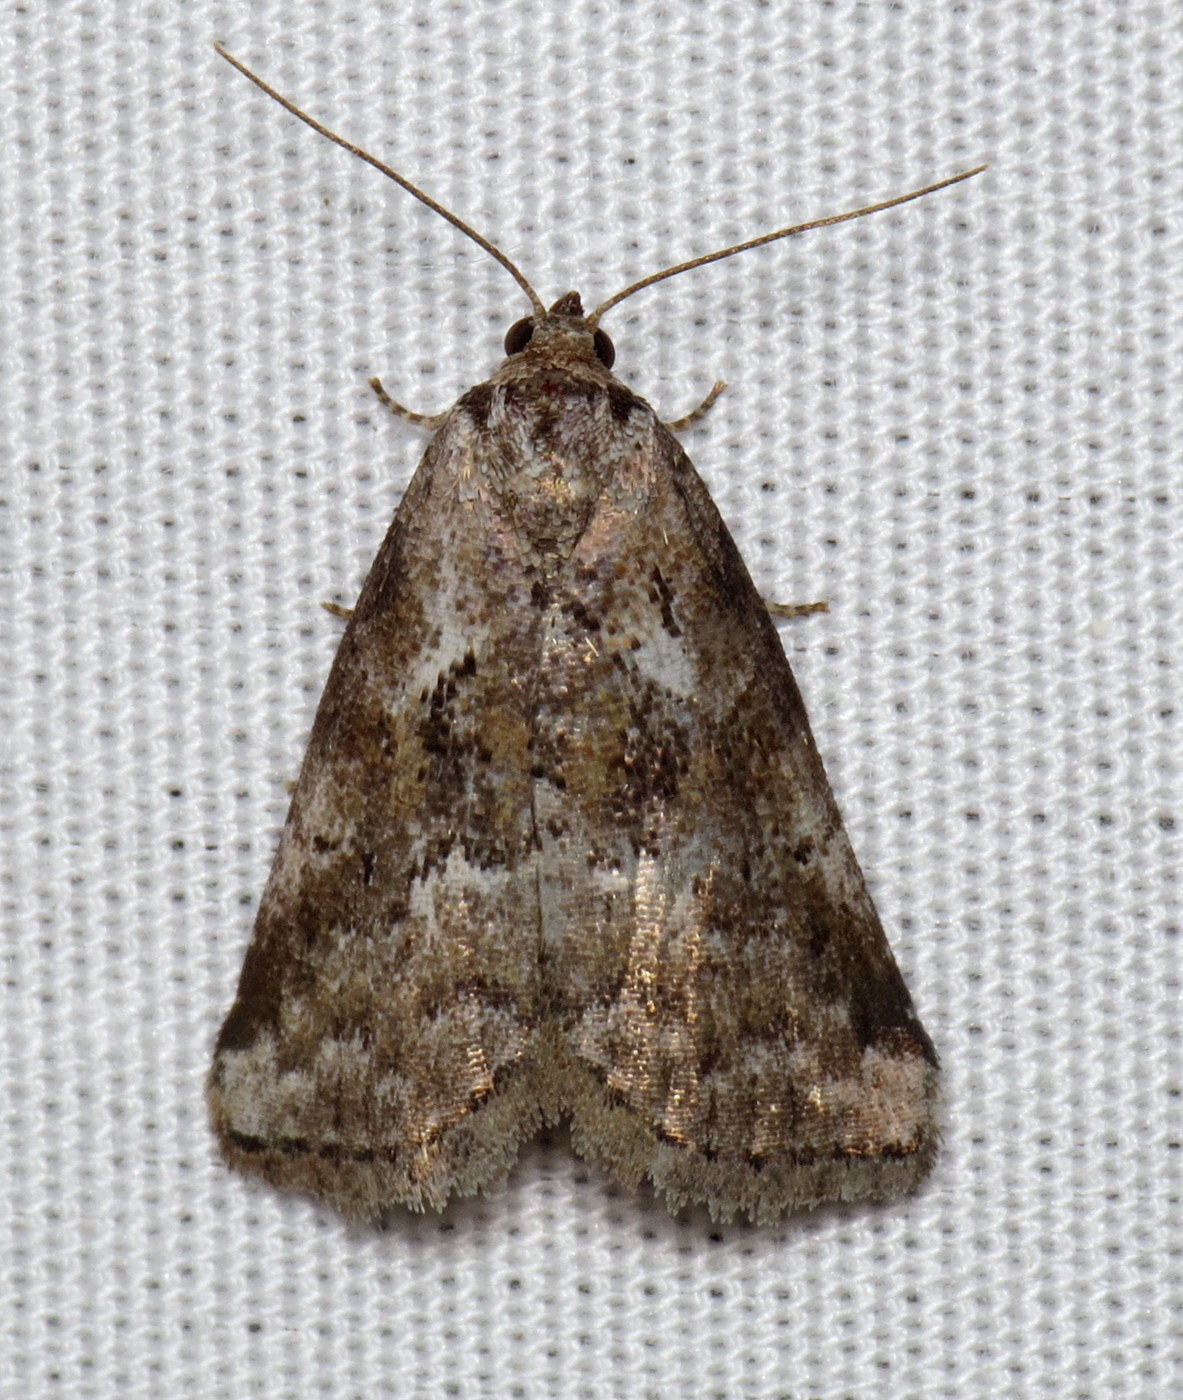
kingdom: Animalia
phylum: Arthropoda
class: Insecta
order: Lepidoptera
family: Erebidae
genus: Hyperstrotia
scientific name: Hyperstrotia nana
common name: White-lined graylet
